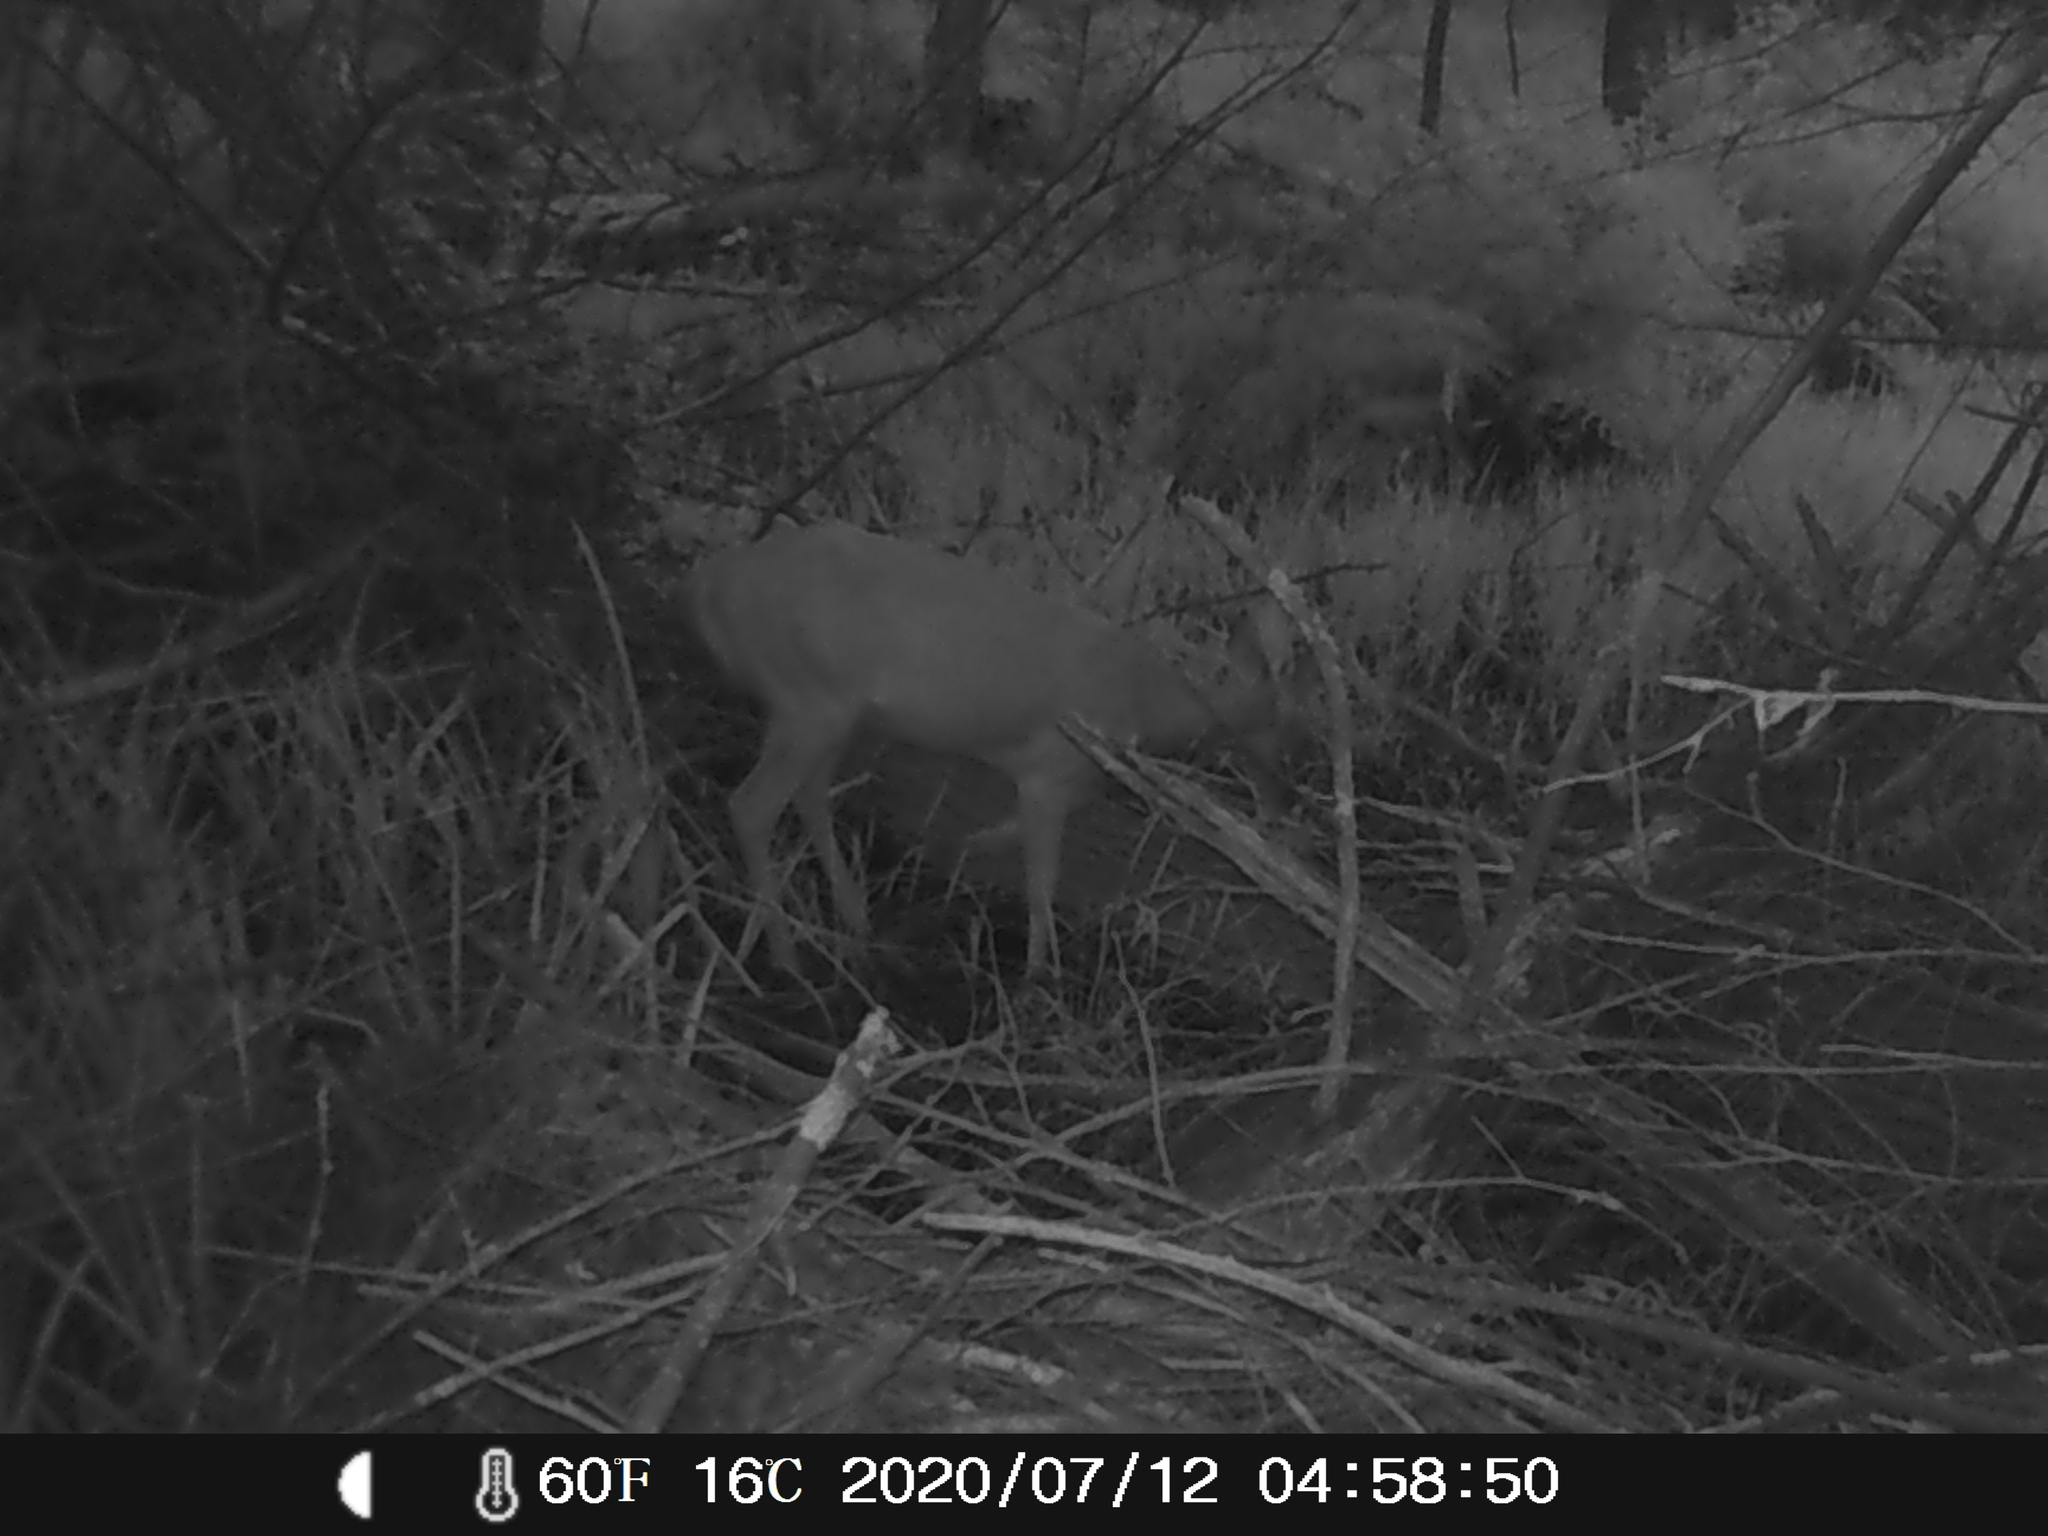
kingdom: Animalia
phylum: Chordata
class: Mammalia
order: Artiodactyla
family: Cervidae
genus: Odocoileus
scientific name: Odocoileus virginianus
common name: White-tailed deer
